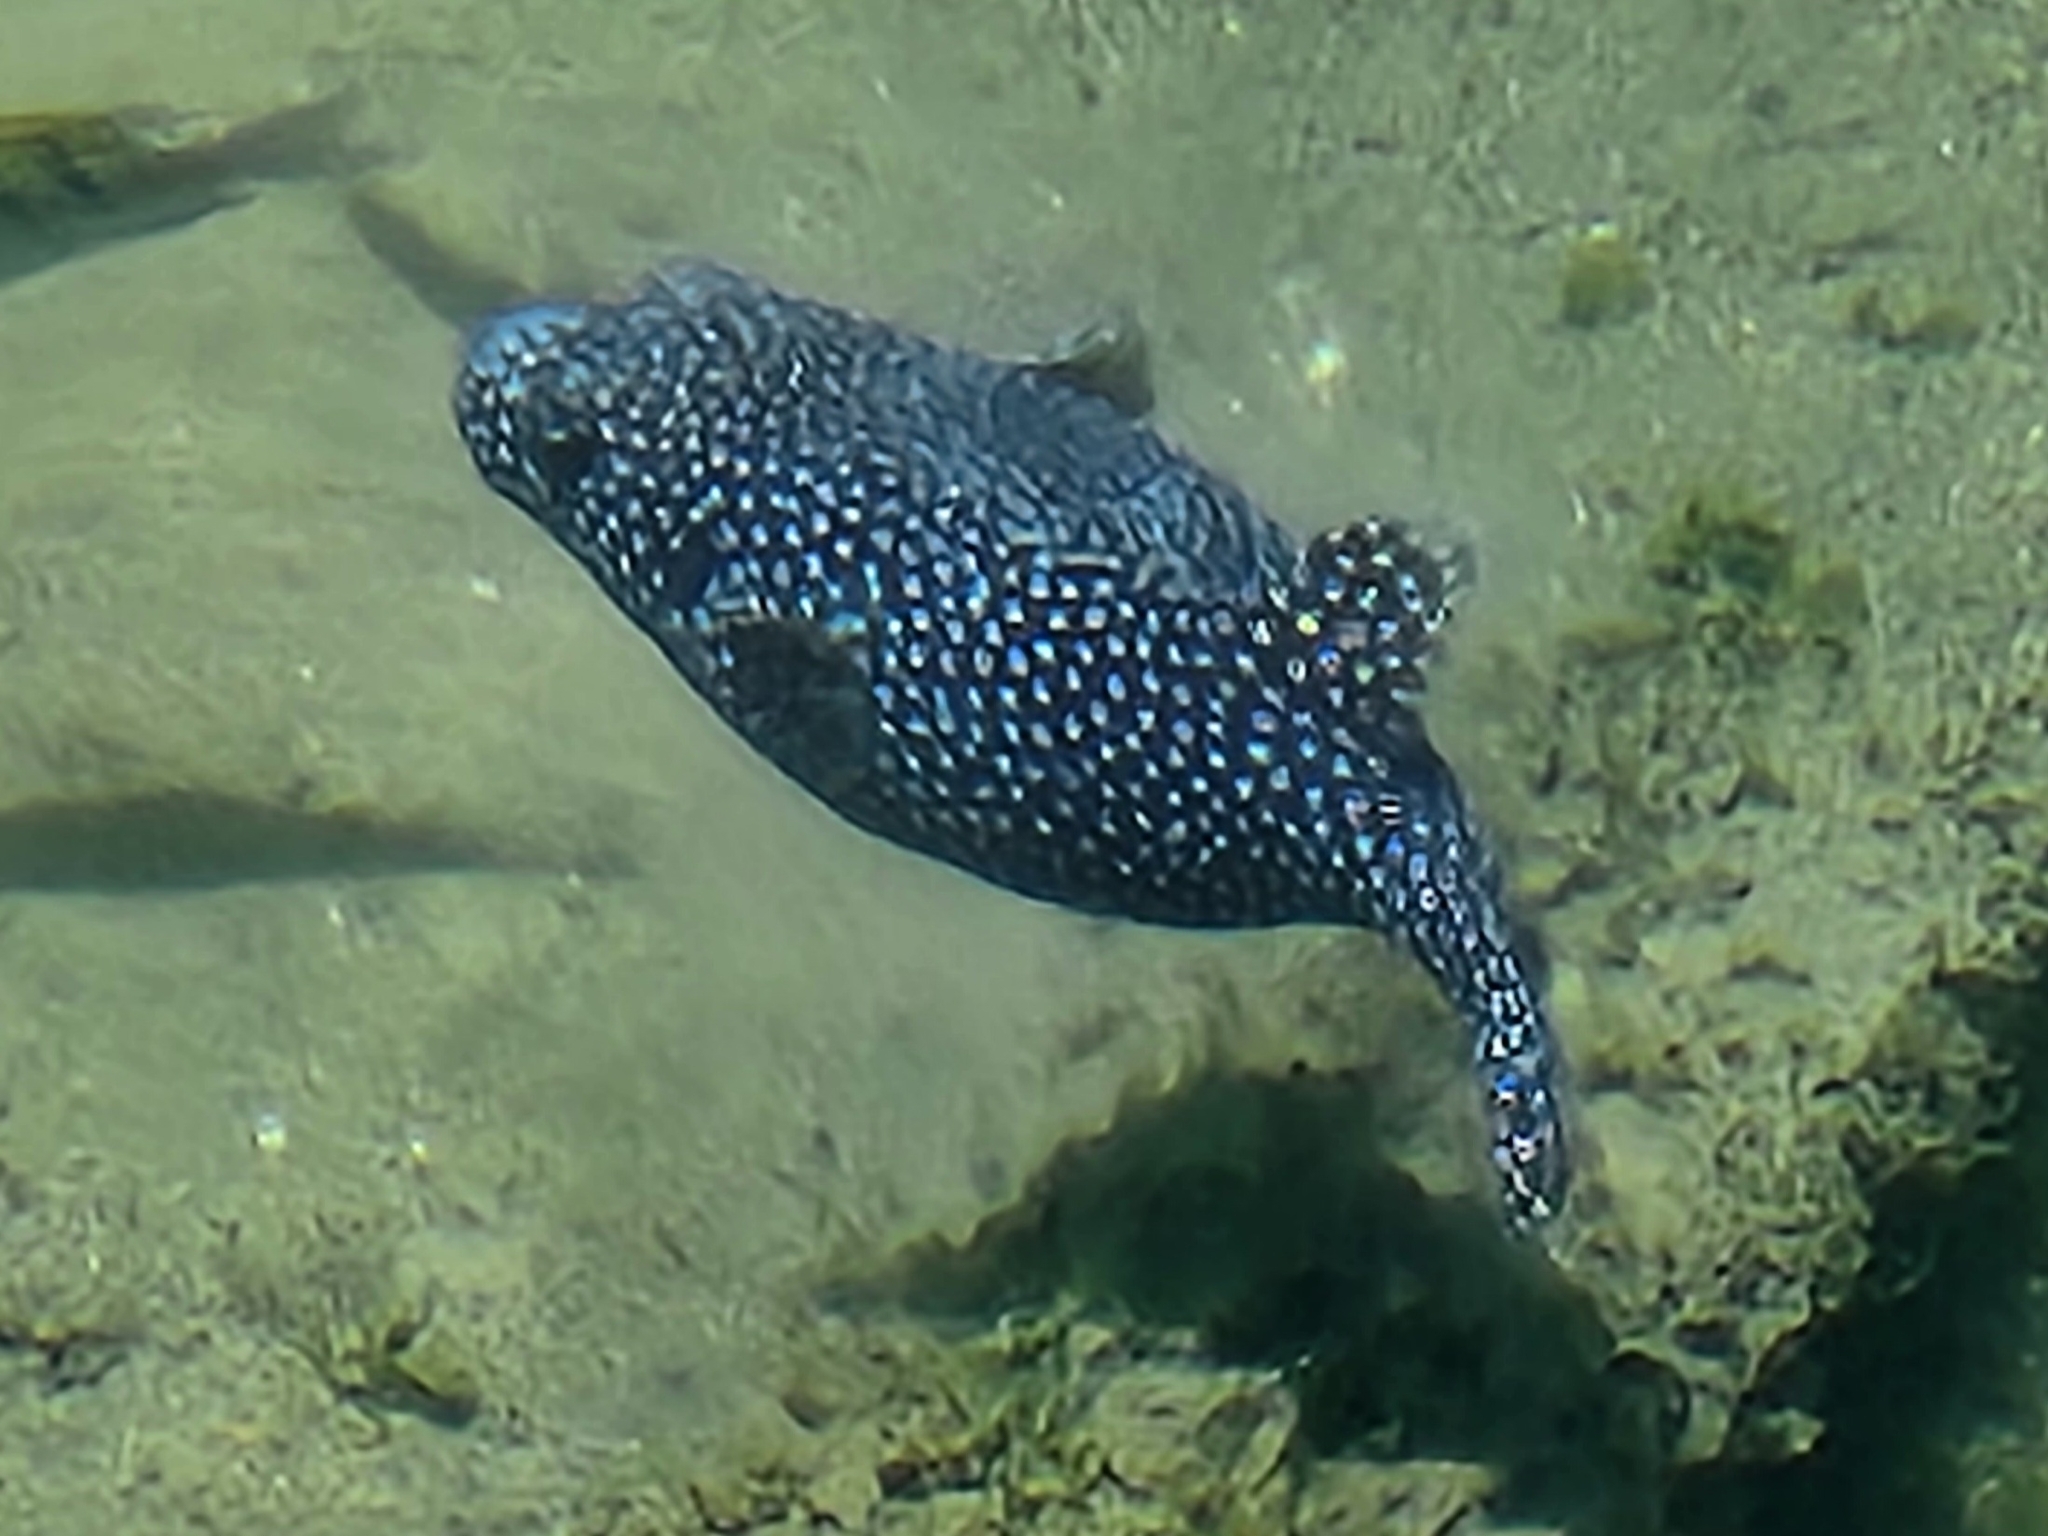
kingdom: Animalia
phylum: Chordata
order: Tetraodontiformes
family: Tetraodontidae
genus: Arothron
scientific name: Arothron meleagris
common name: Guinea-fowl pufferfish
